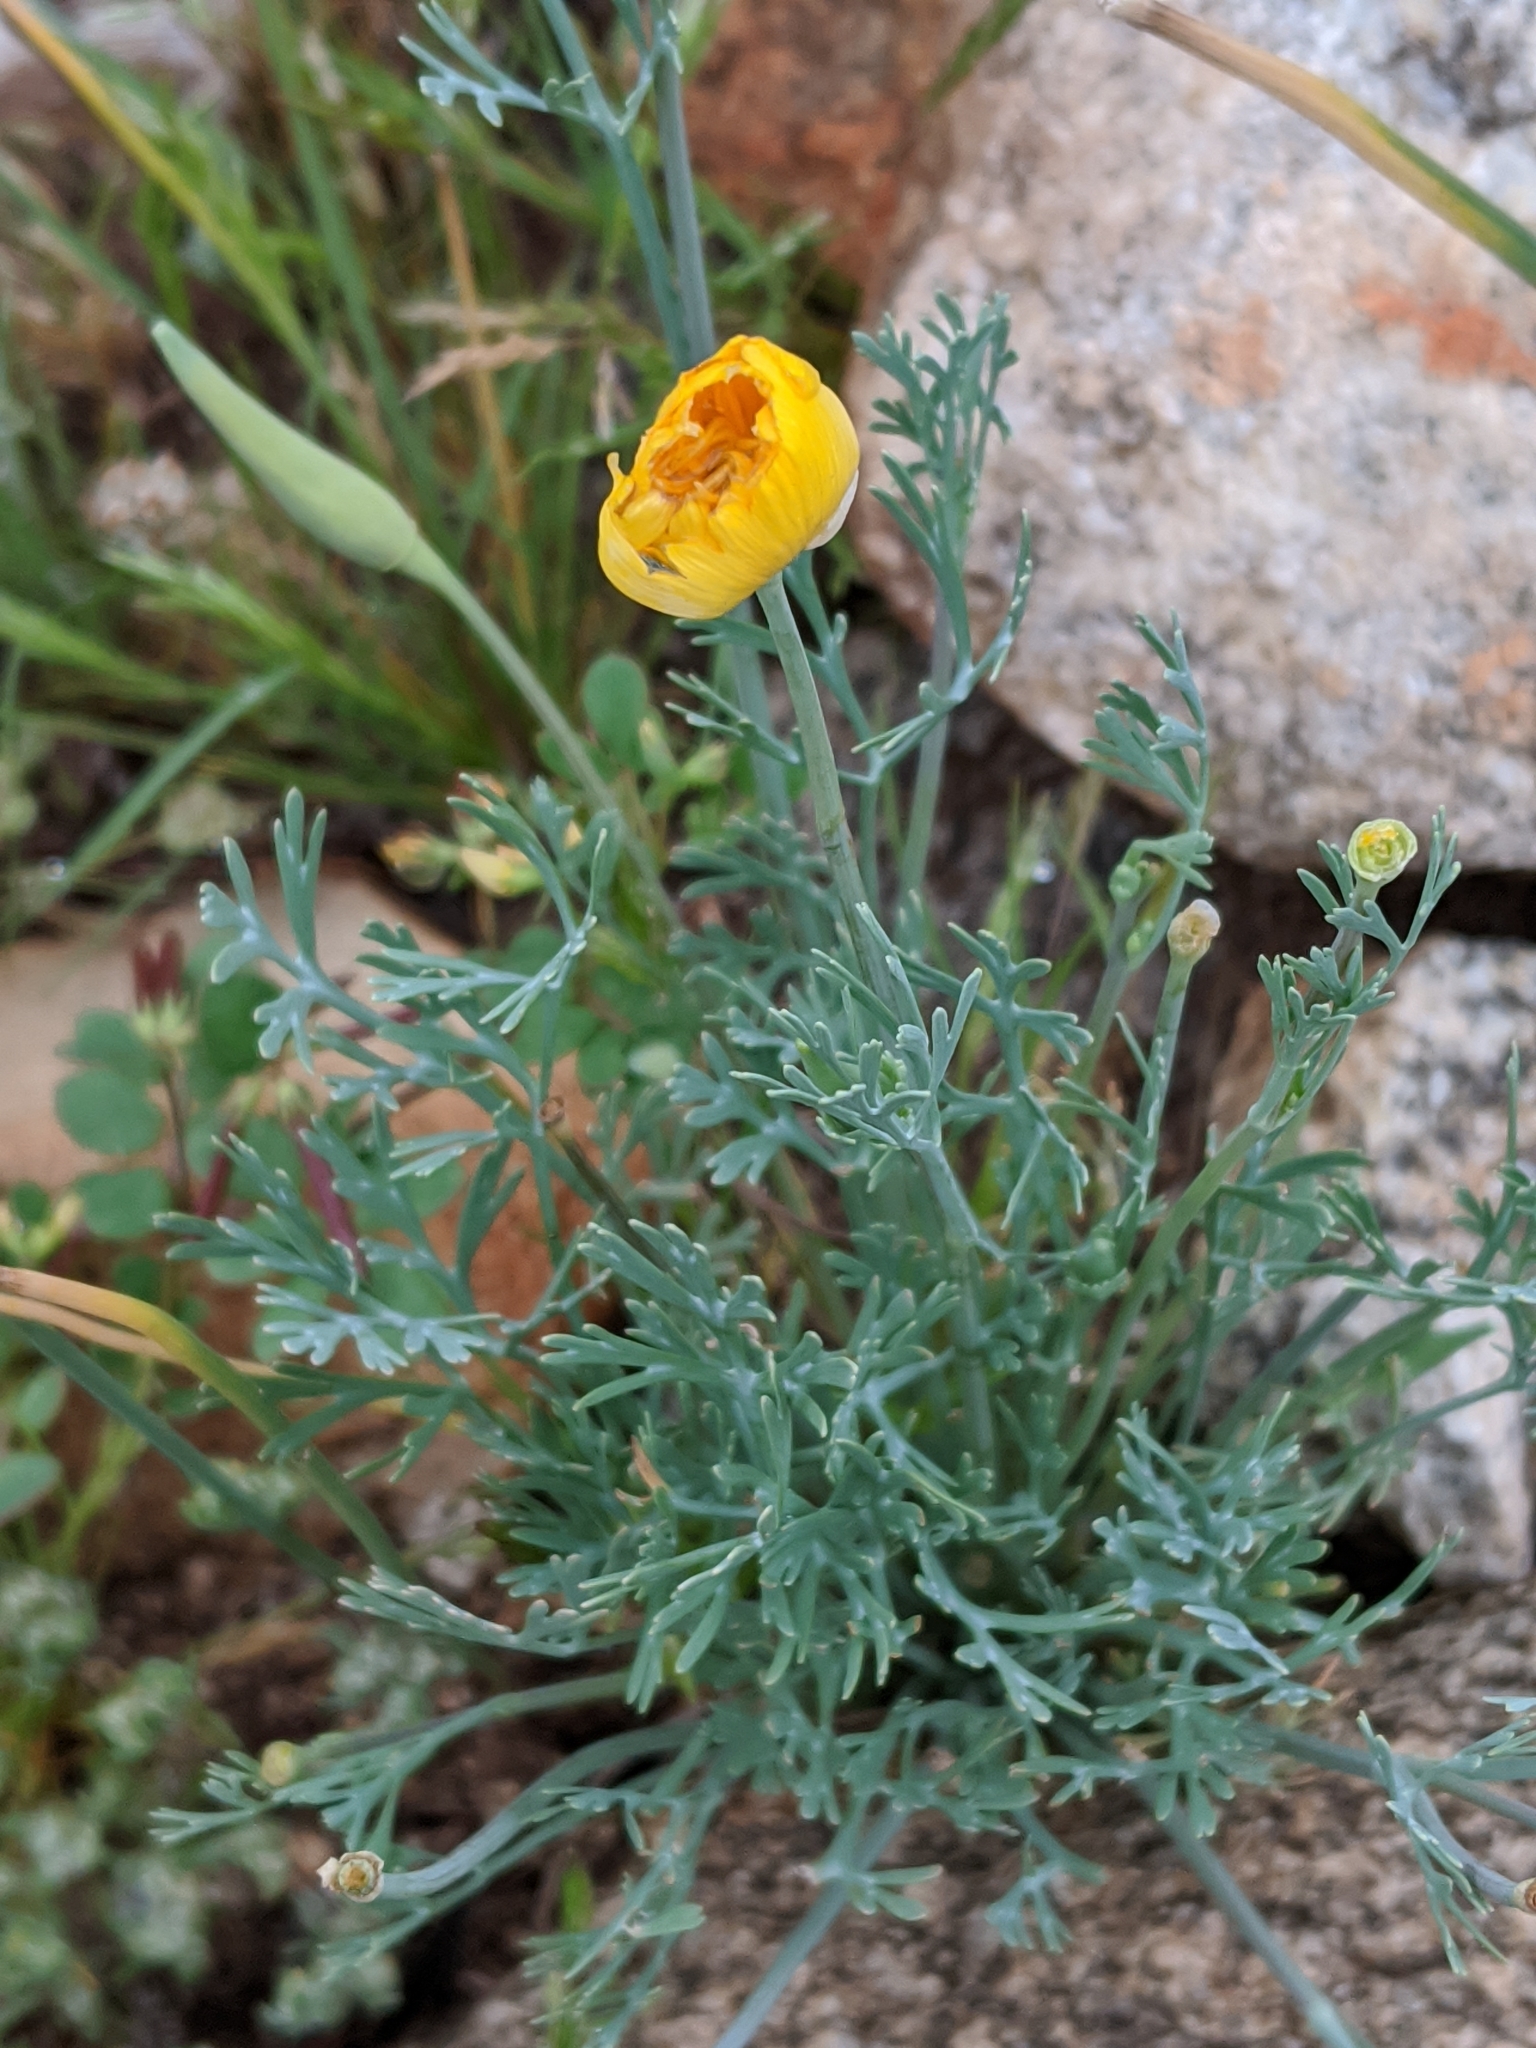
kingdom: Plantae
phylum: Tracheophyta
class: Magnoliopsida
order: Ranunculales
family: Papaveraceae
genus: Eschscholzia
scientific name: Eschscholzia californica
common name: California poppy
